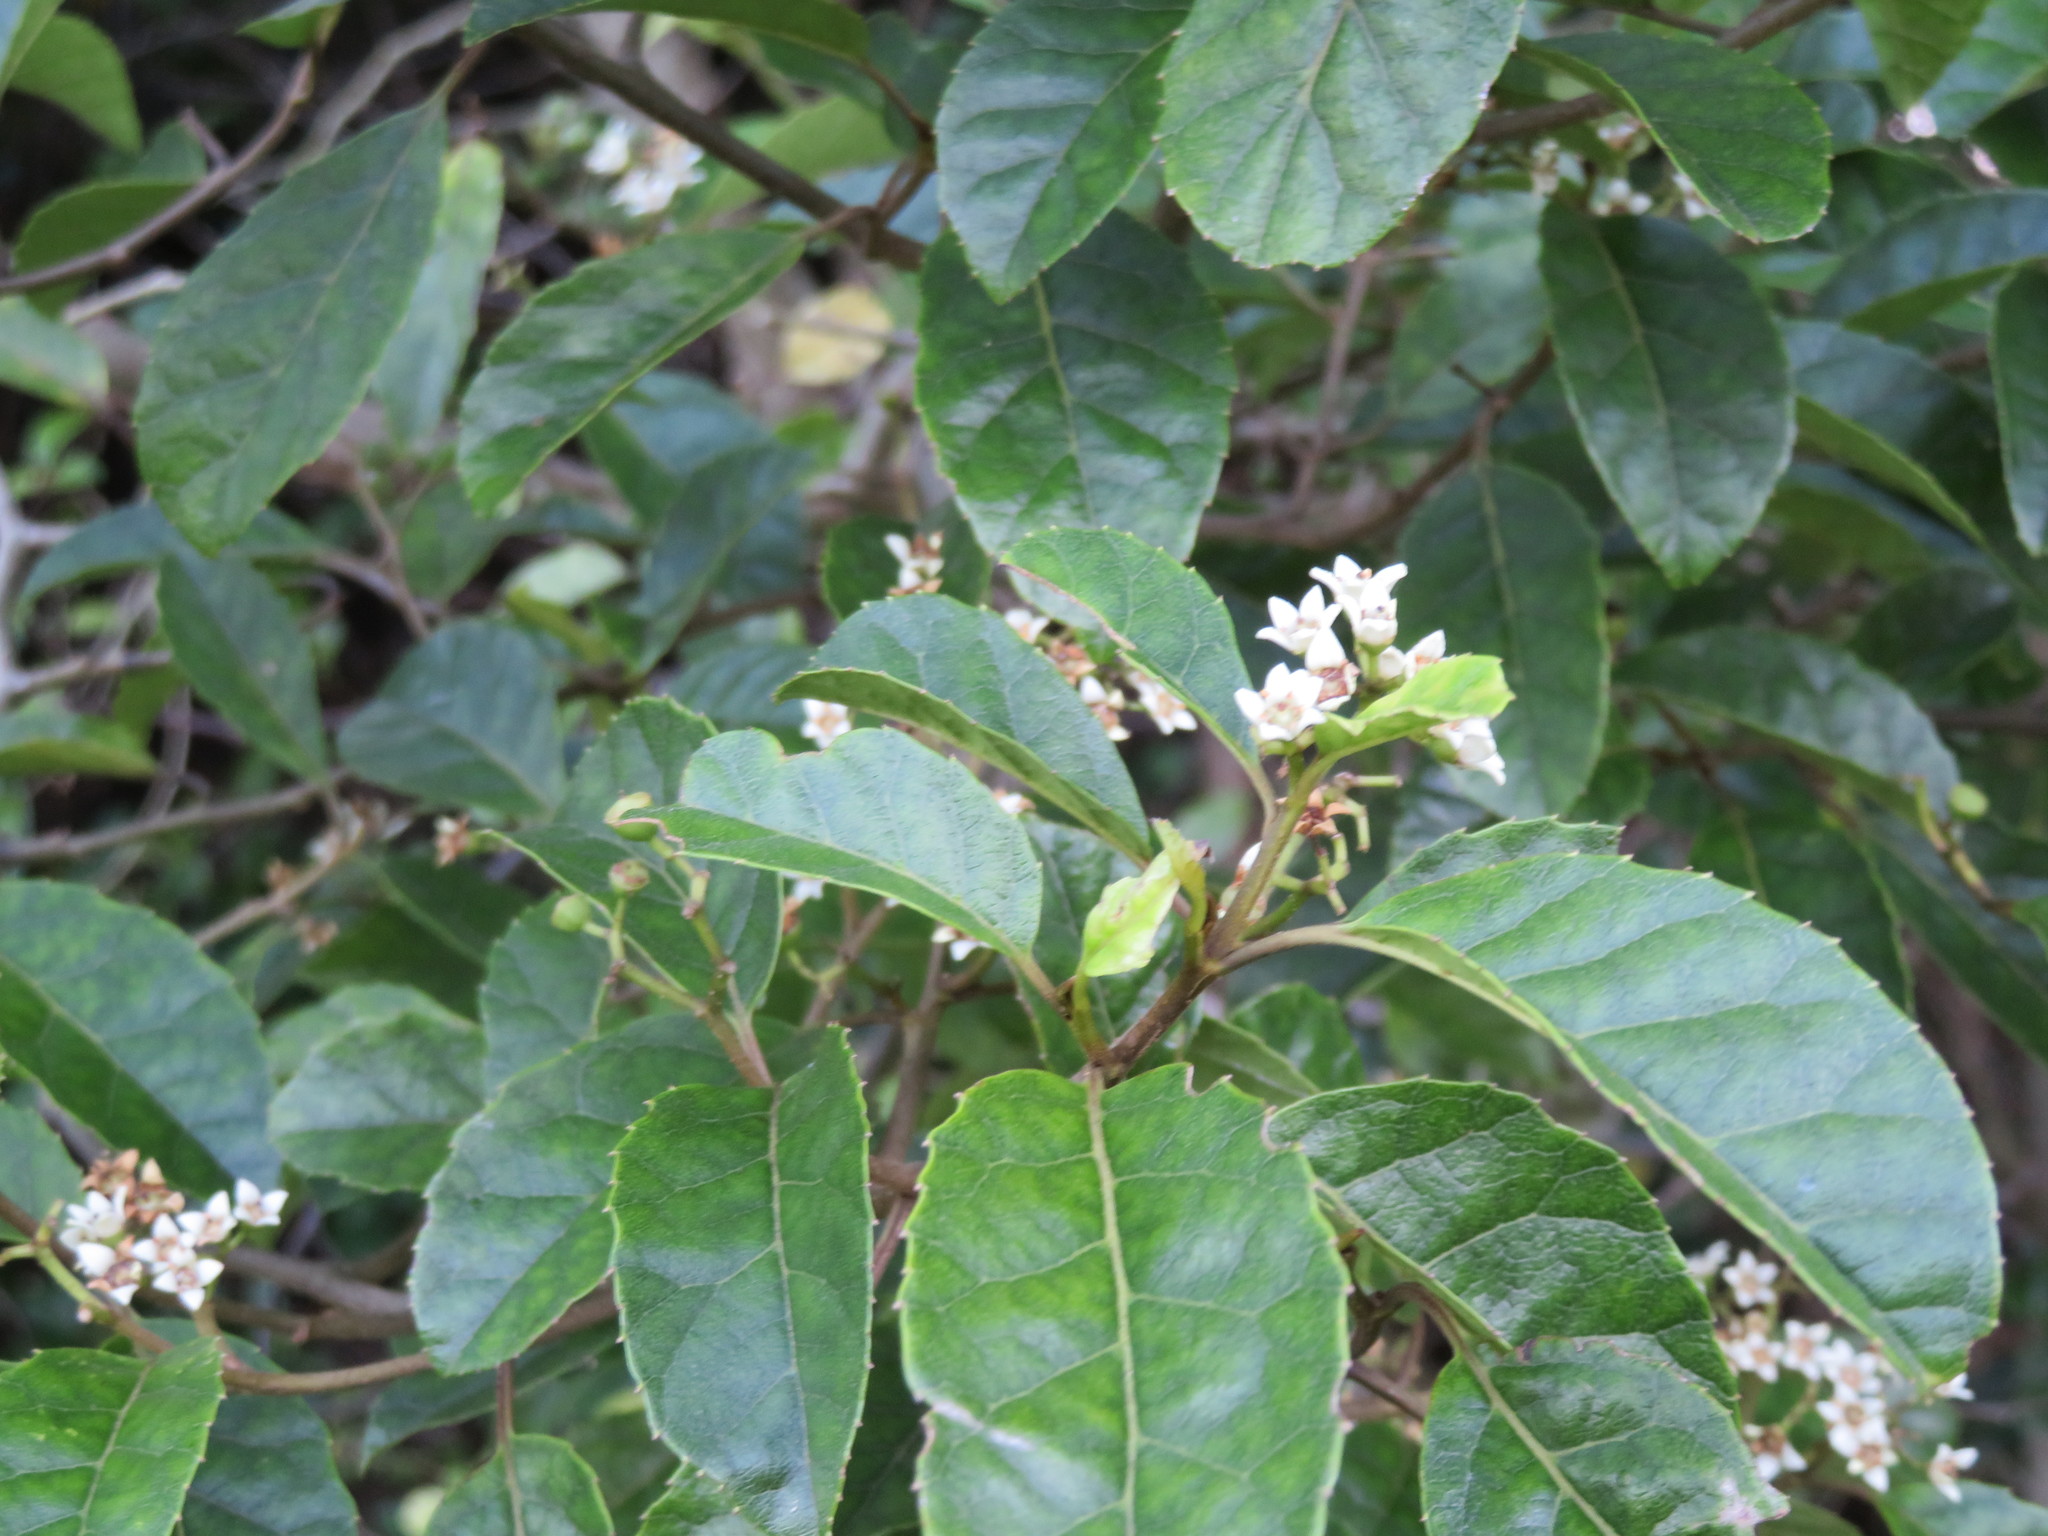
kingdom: Plantae
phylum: Tracheophyta
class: Magnoliopsida
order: Asterales
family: Rousseaceae
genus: Carpodetus
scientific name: Carpodetus serratus
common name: White mapau
